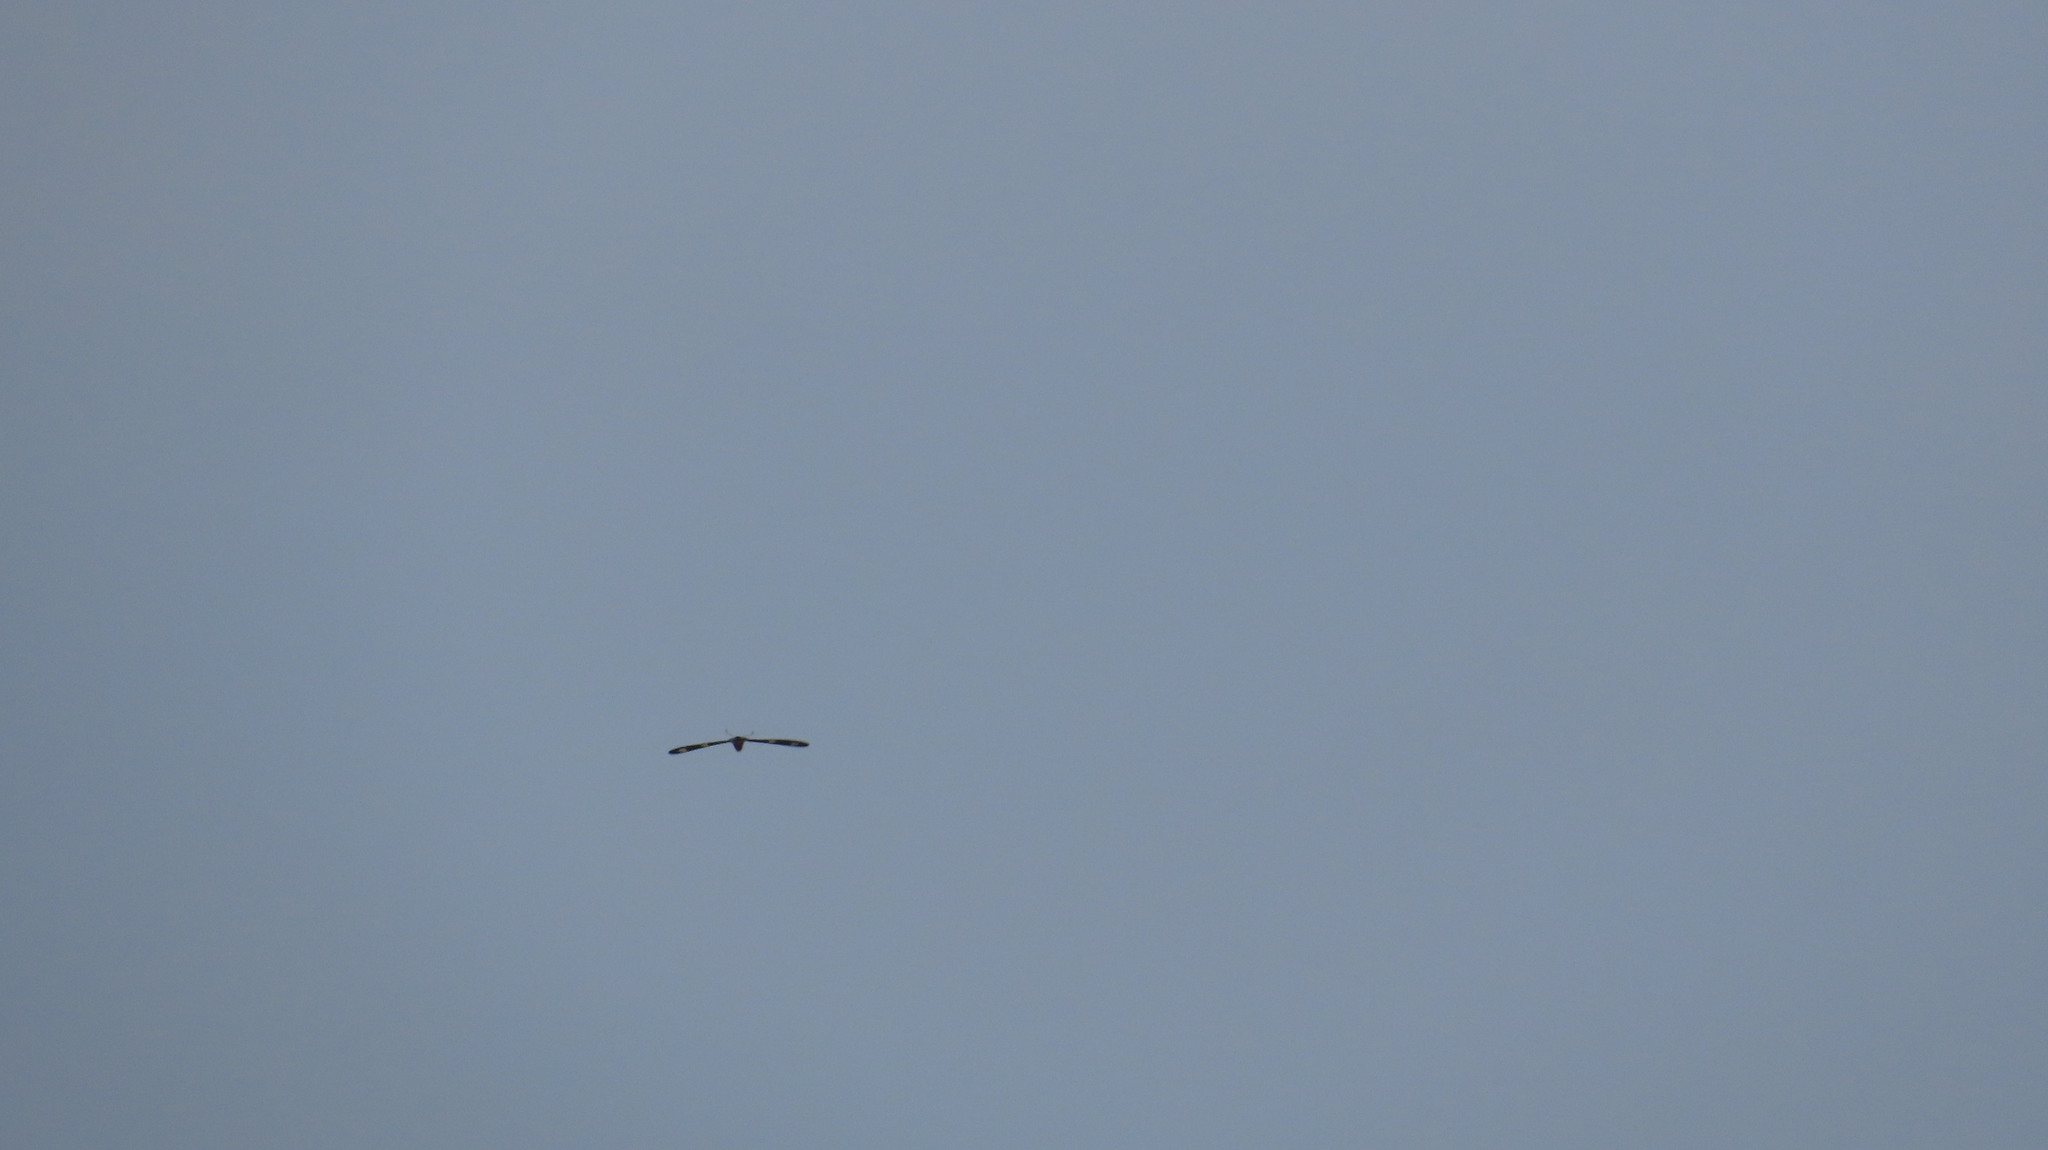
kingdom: Animalia
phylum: Arthropoda
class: Insecta
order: Lepidoptera
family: Papilionidae
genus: Pachliopta
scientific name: Pachliopta hector
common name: Crimson rose
